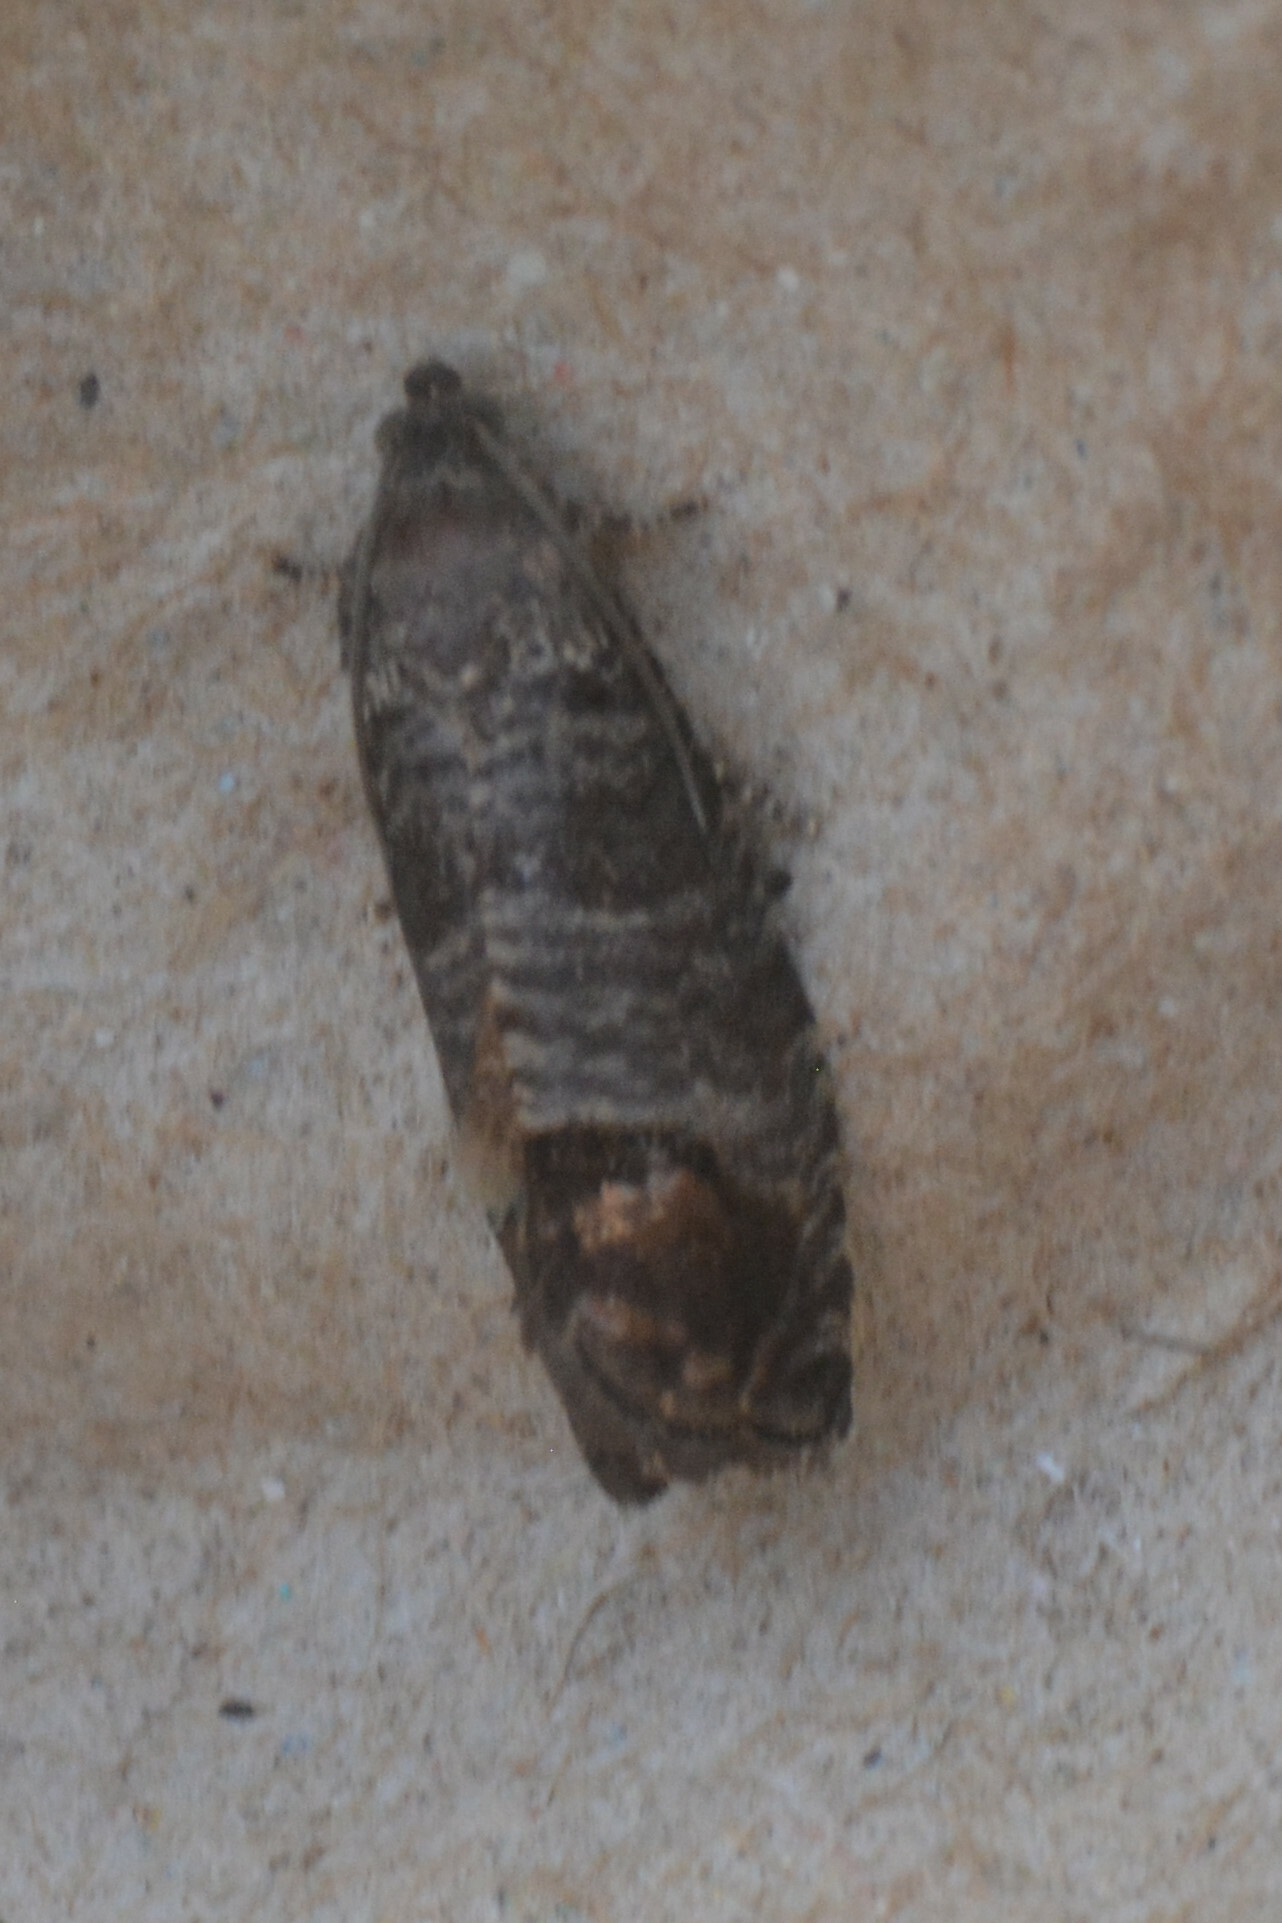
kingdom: Animalia
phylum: Arthropoda
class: Insecta
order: Lepidoptera
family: Tortricidae
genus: Cydia
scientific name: Cydia pomonella
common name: Codling moth
